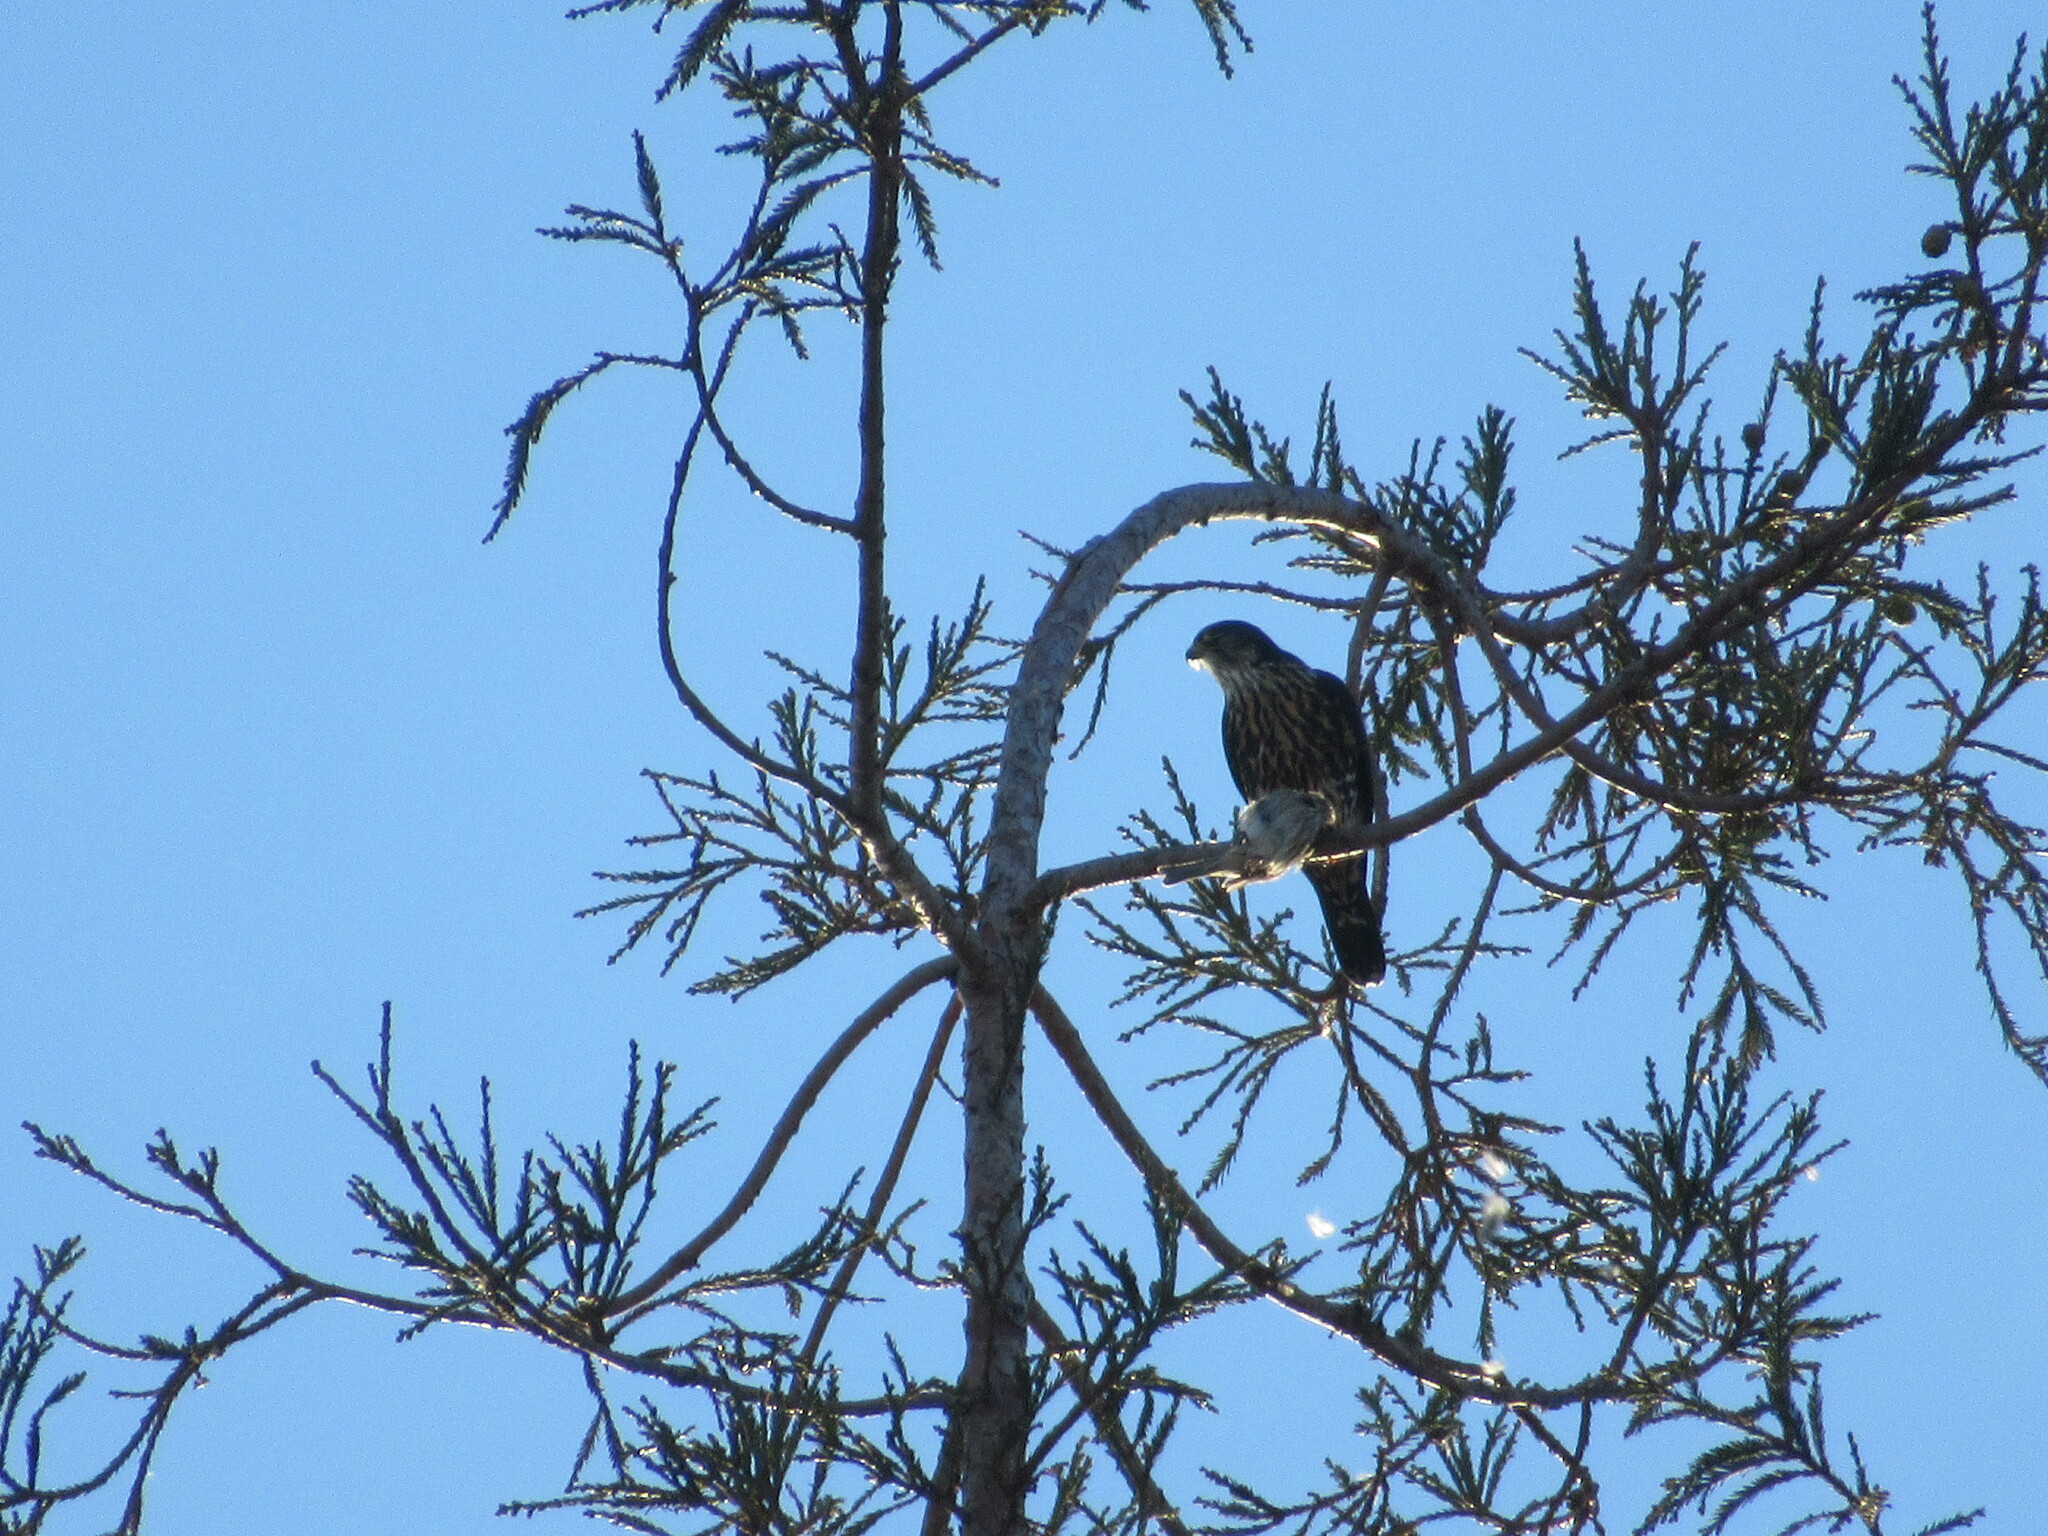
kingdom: Animalia
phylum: Chordata
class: Aves
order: Falconiformes
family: Falconidae
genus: Falco
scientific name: Falco columbarius
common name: Merlin
